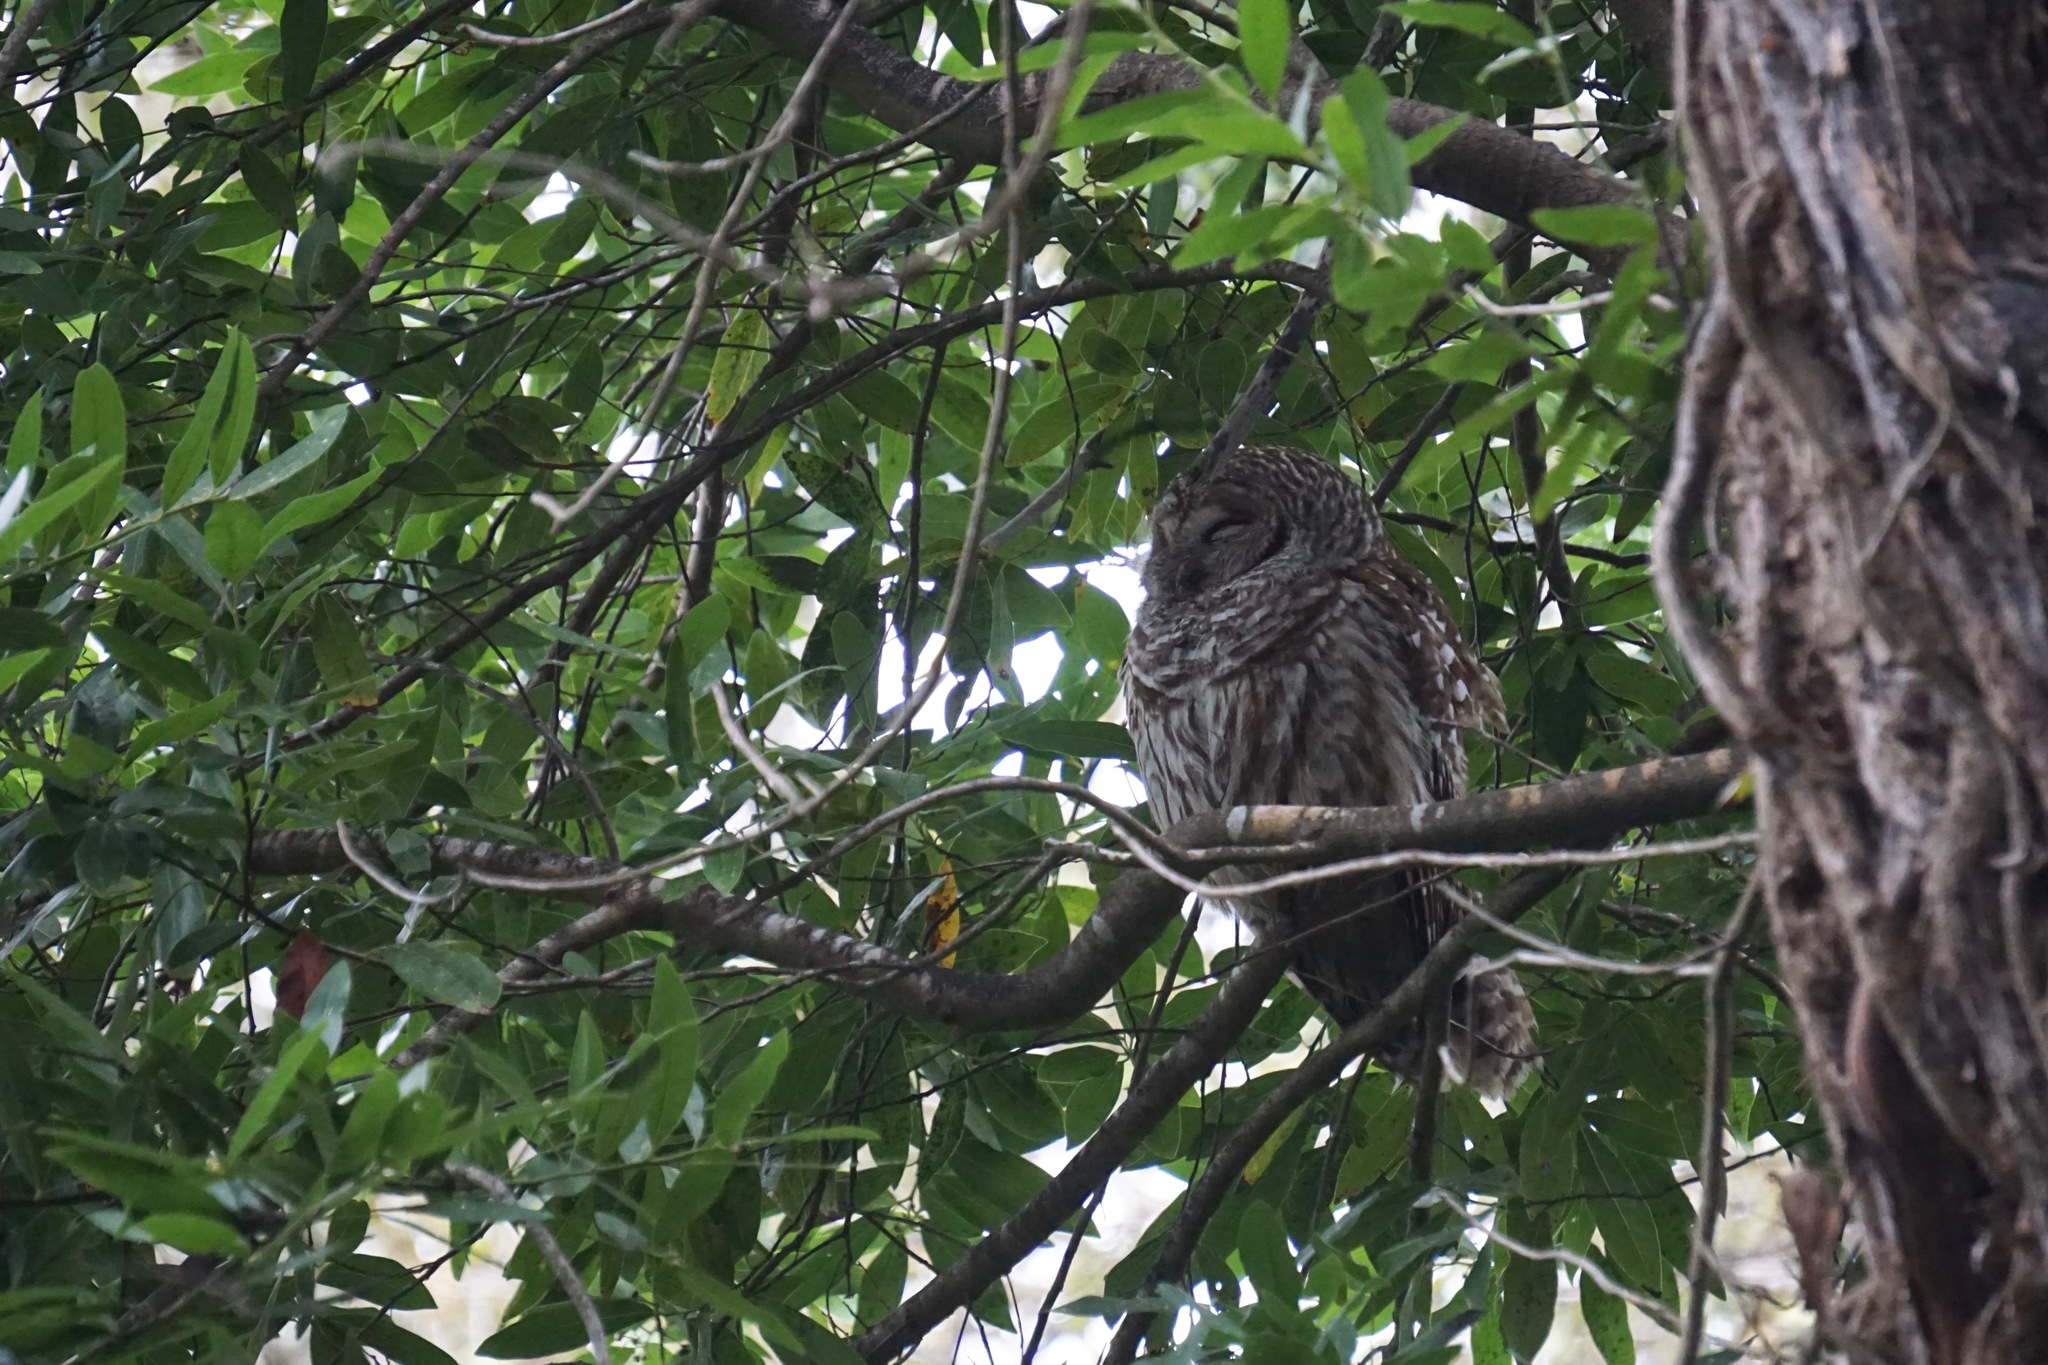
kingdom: Animalia
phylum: Chordata
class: Aves
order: Strigiformes
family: Strigidae
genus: Strix
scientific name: Strix varia
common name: Barred owl
